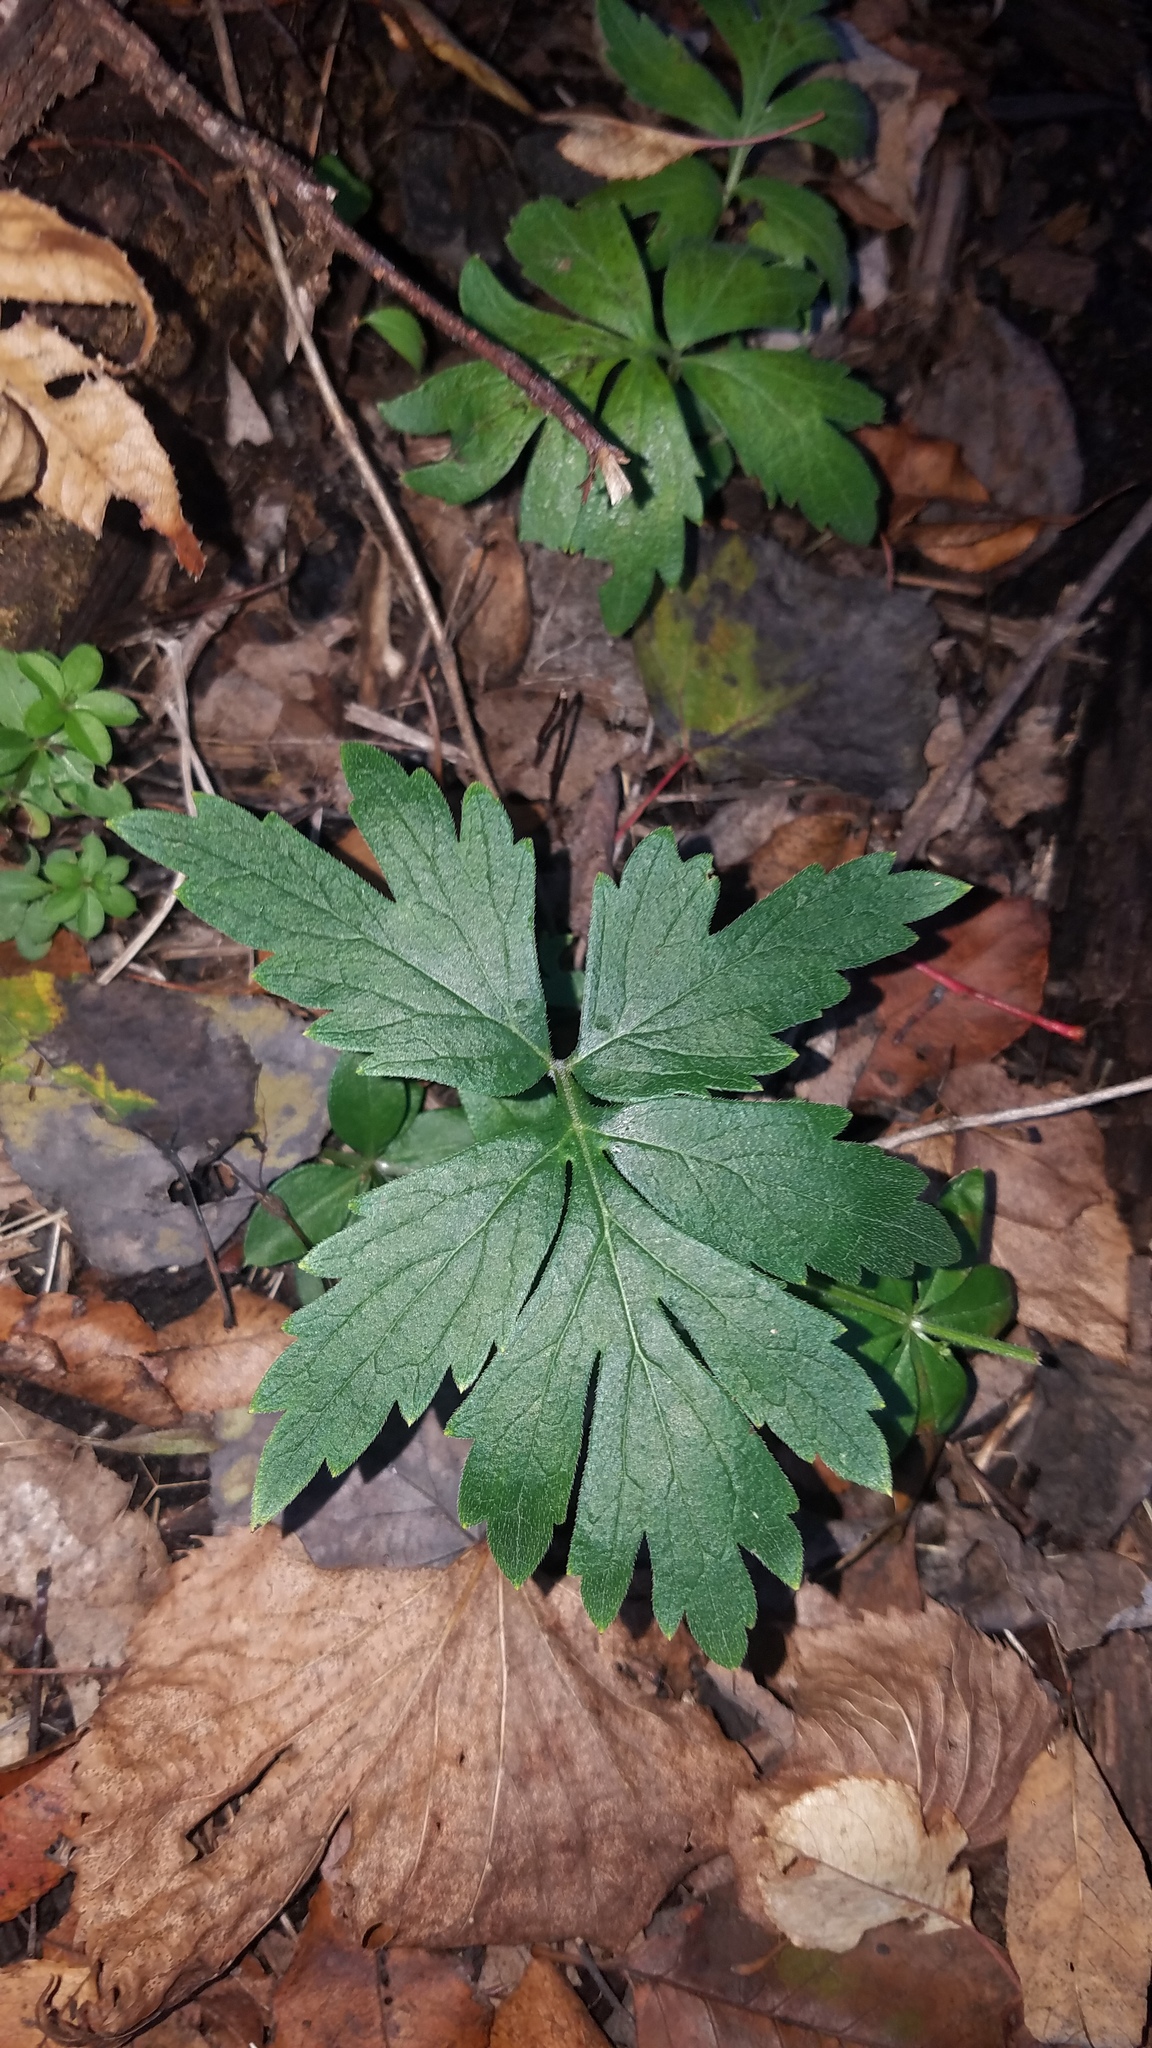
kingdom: Plantae
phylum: Tracheophyta
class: Magnoliopsida
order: Boraginales
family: Hydrophyllaceae
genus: Hydrophyllum
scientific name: Hydrophyllum virginianum
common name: Virginia waterleaf
